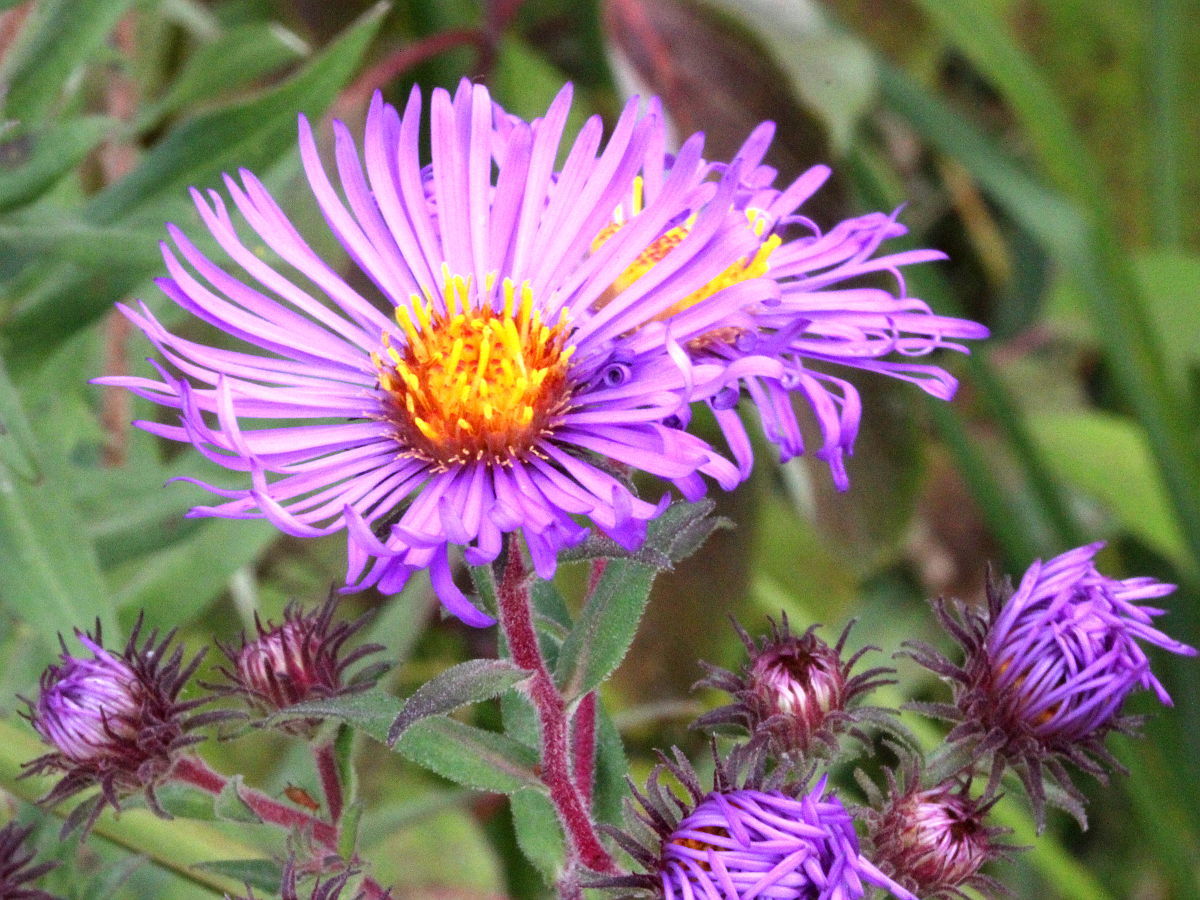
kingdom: Plantae
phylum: Tracheophyta
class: Magnoliopsida
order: Asterales
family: Asteraceae
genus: Symphyotrichum
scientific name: Symphyotrichum novae-angliae
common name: Michaelmas daisy
